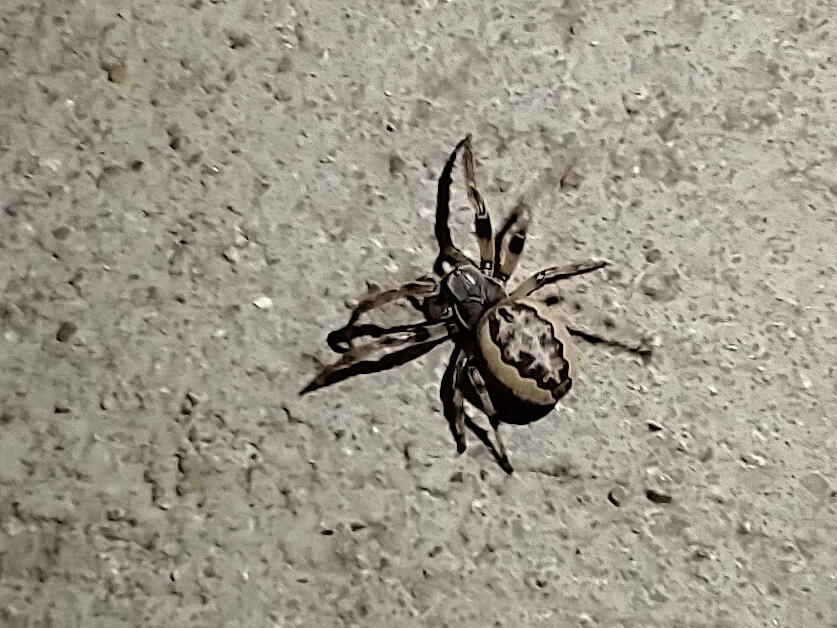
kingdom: Animalia
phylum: Arthropoda
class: Arachnida
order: Araneae
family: Araneidae
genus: Larinioides
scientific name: Larinioides cornutus
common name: Furrow orbweaver
